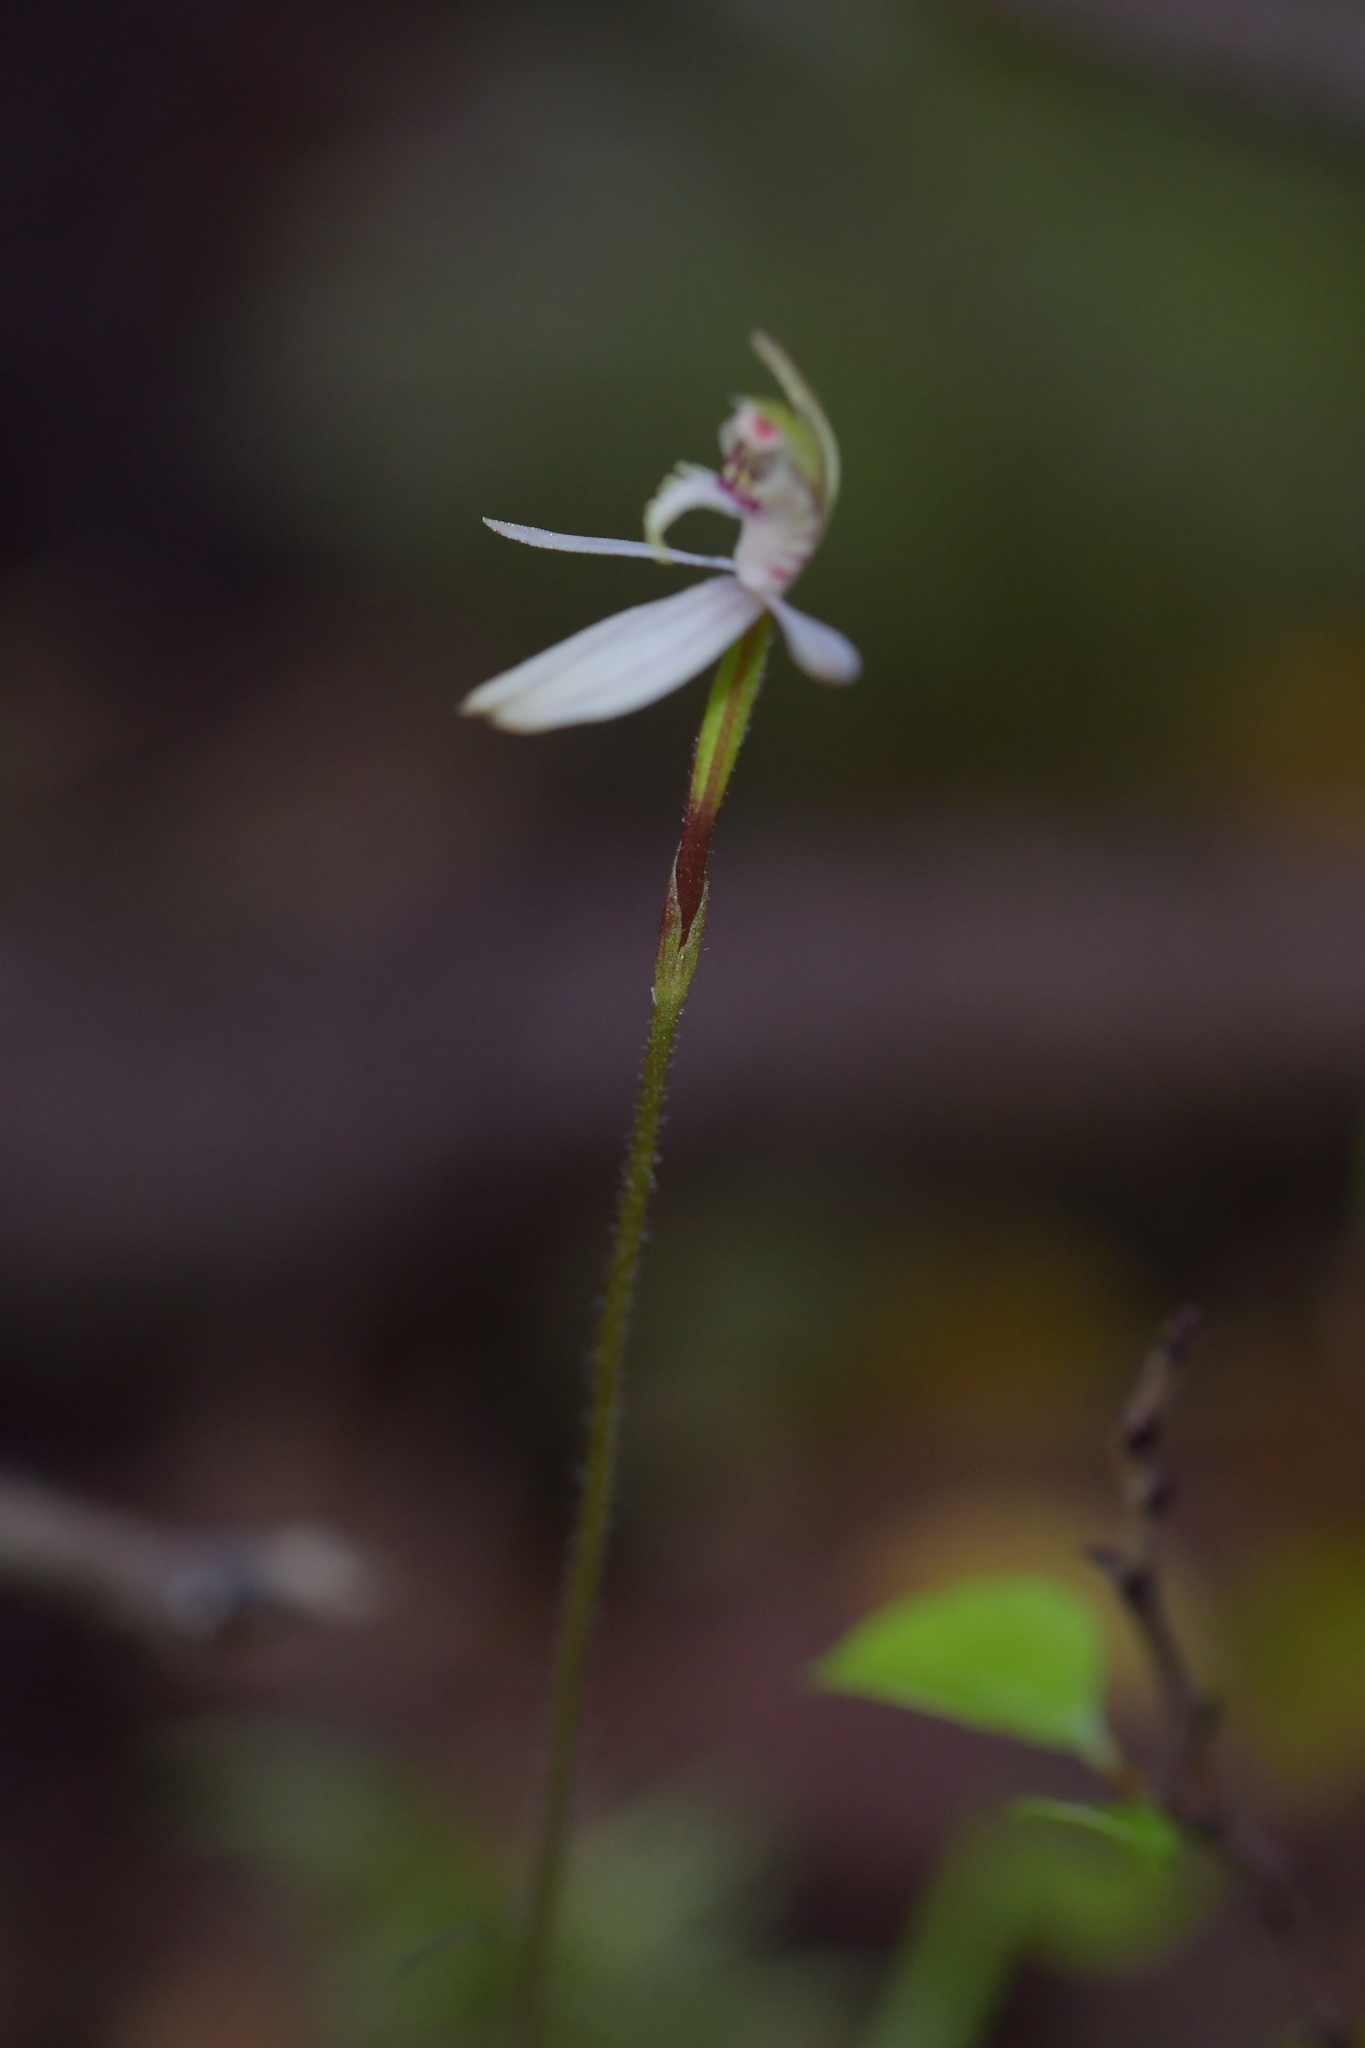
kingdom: Plantae
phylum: Tracheophyta
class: Liliopsida
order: Asparagales
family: Orchidaceae
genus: Caladenia
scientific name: Caladenia chlorostyla
